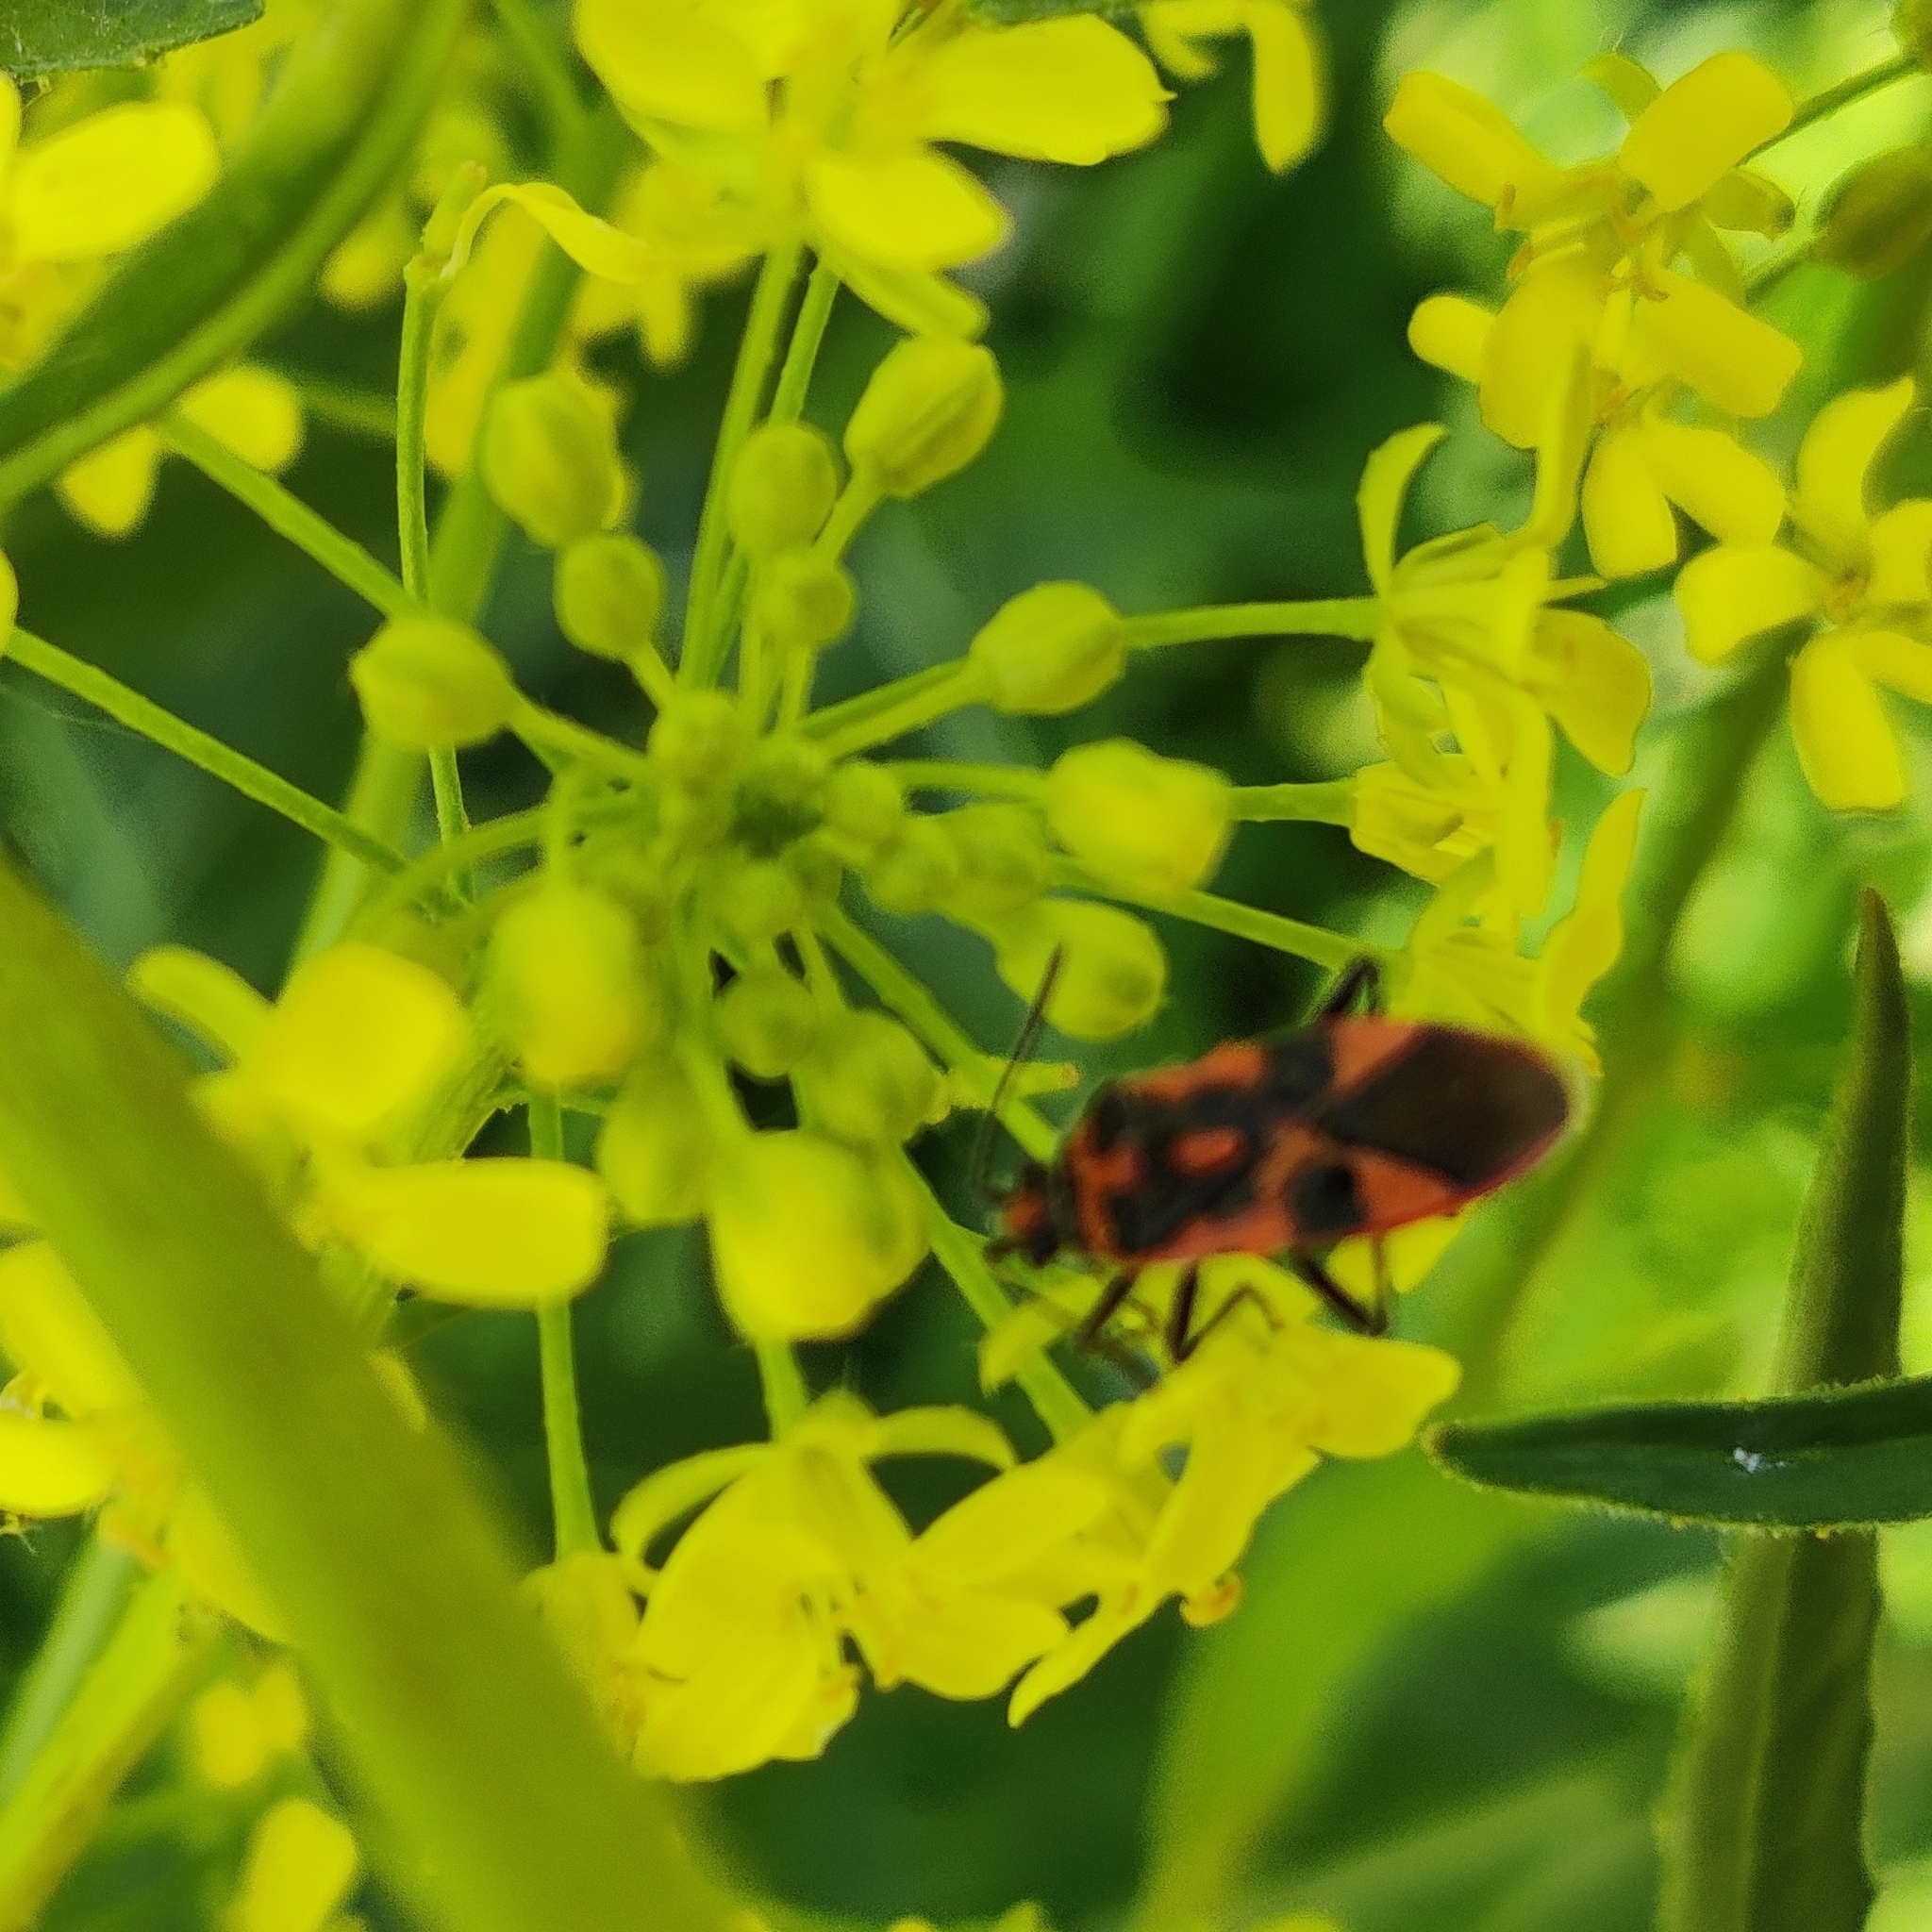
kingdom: Animalia
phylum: Arthropoda
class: Insecta
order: Hemiptera
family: Rhopalidae
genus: Corizus
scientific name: Corizus hyoscyami
